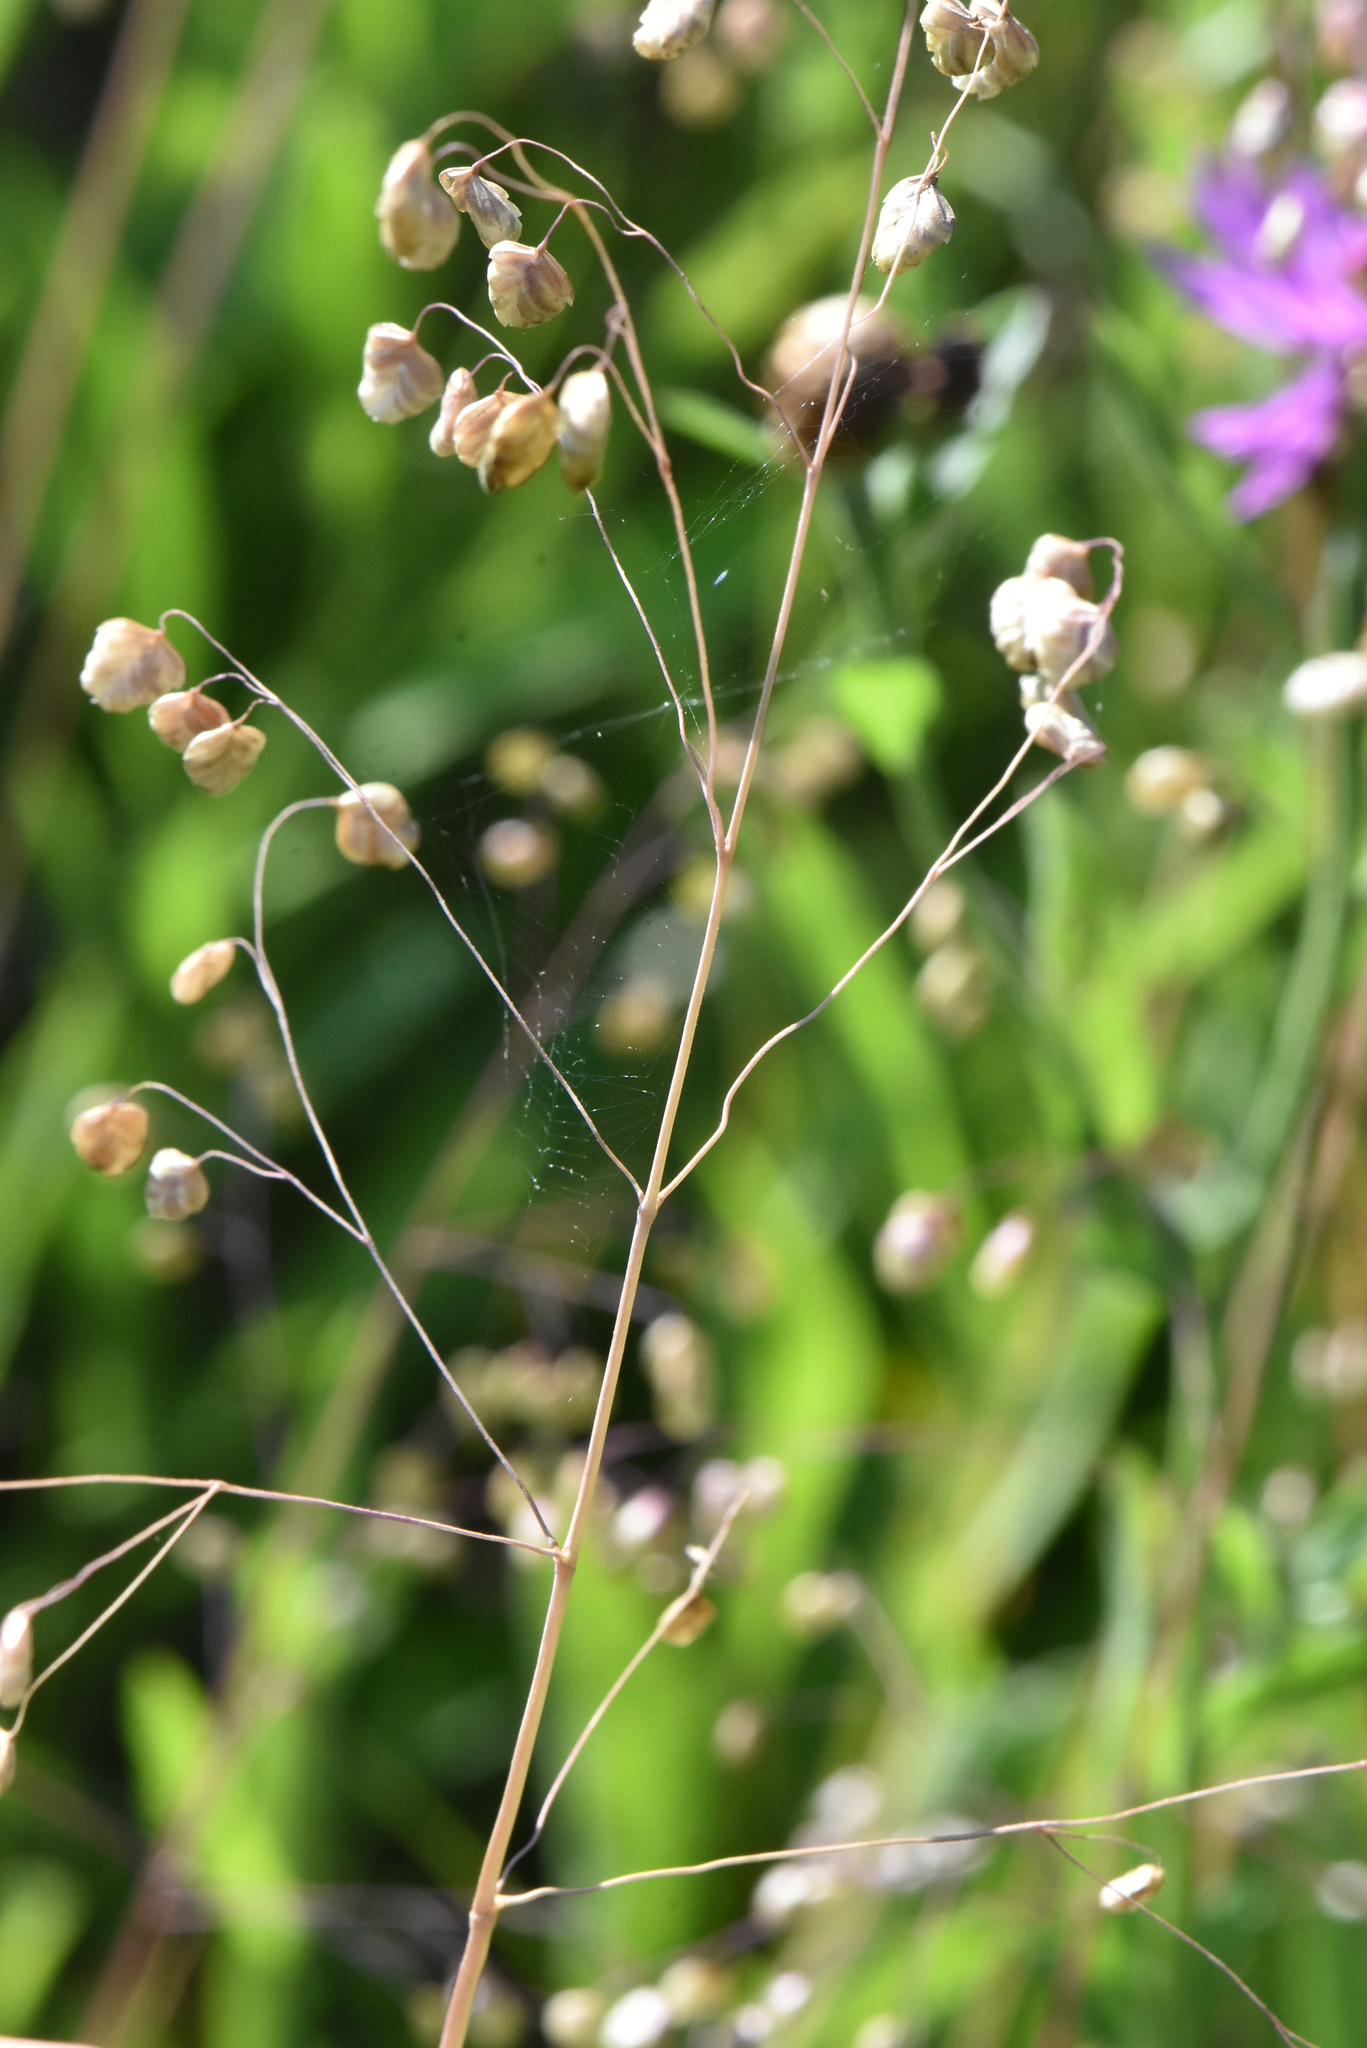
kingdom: Plantae
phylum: Tracheophyta
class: Liliopsida
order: Poales
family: Poaceae
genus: Briza
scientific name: Briza media
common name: Quaking grass
